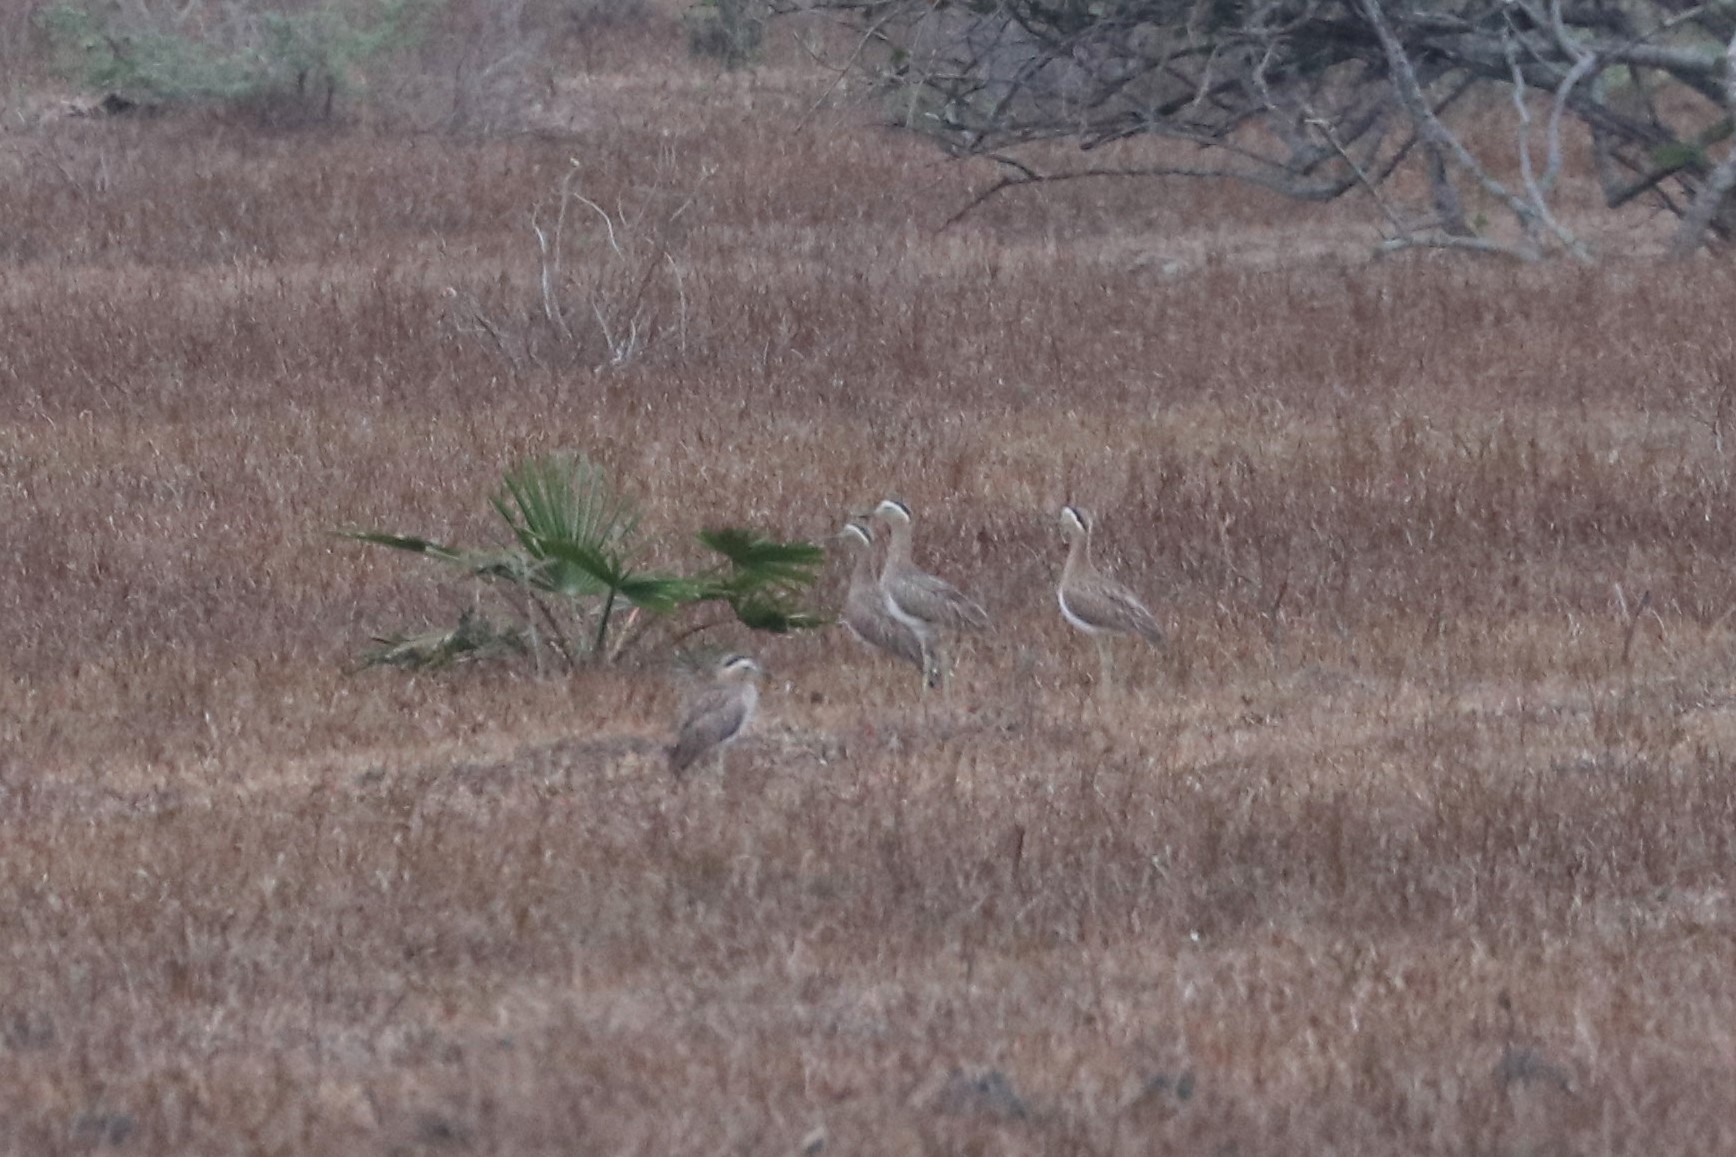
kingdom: Animalia
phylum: Chordata
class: Aves
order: Charadriiformes
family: Burhinidae
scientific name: Burhinidae
